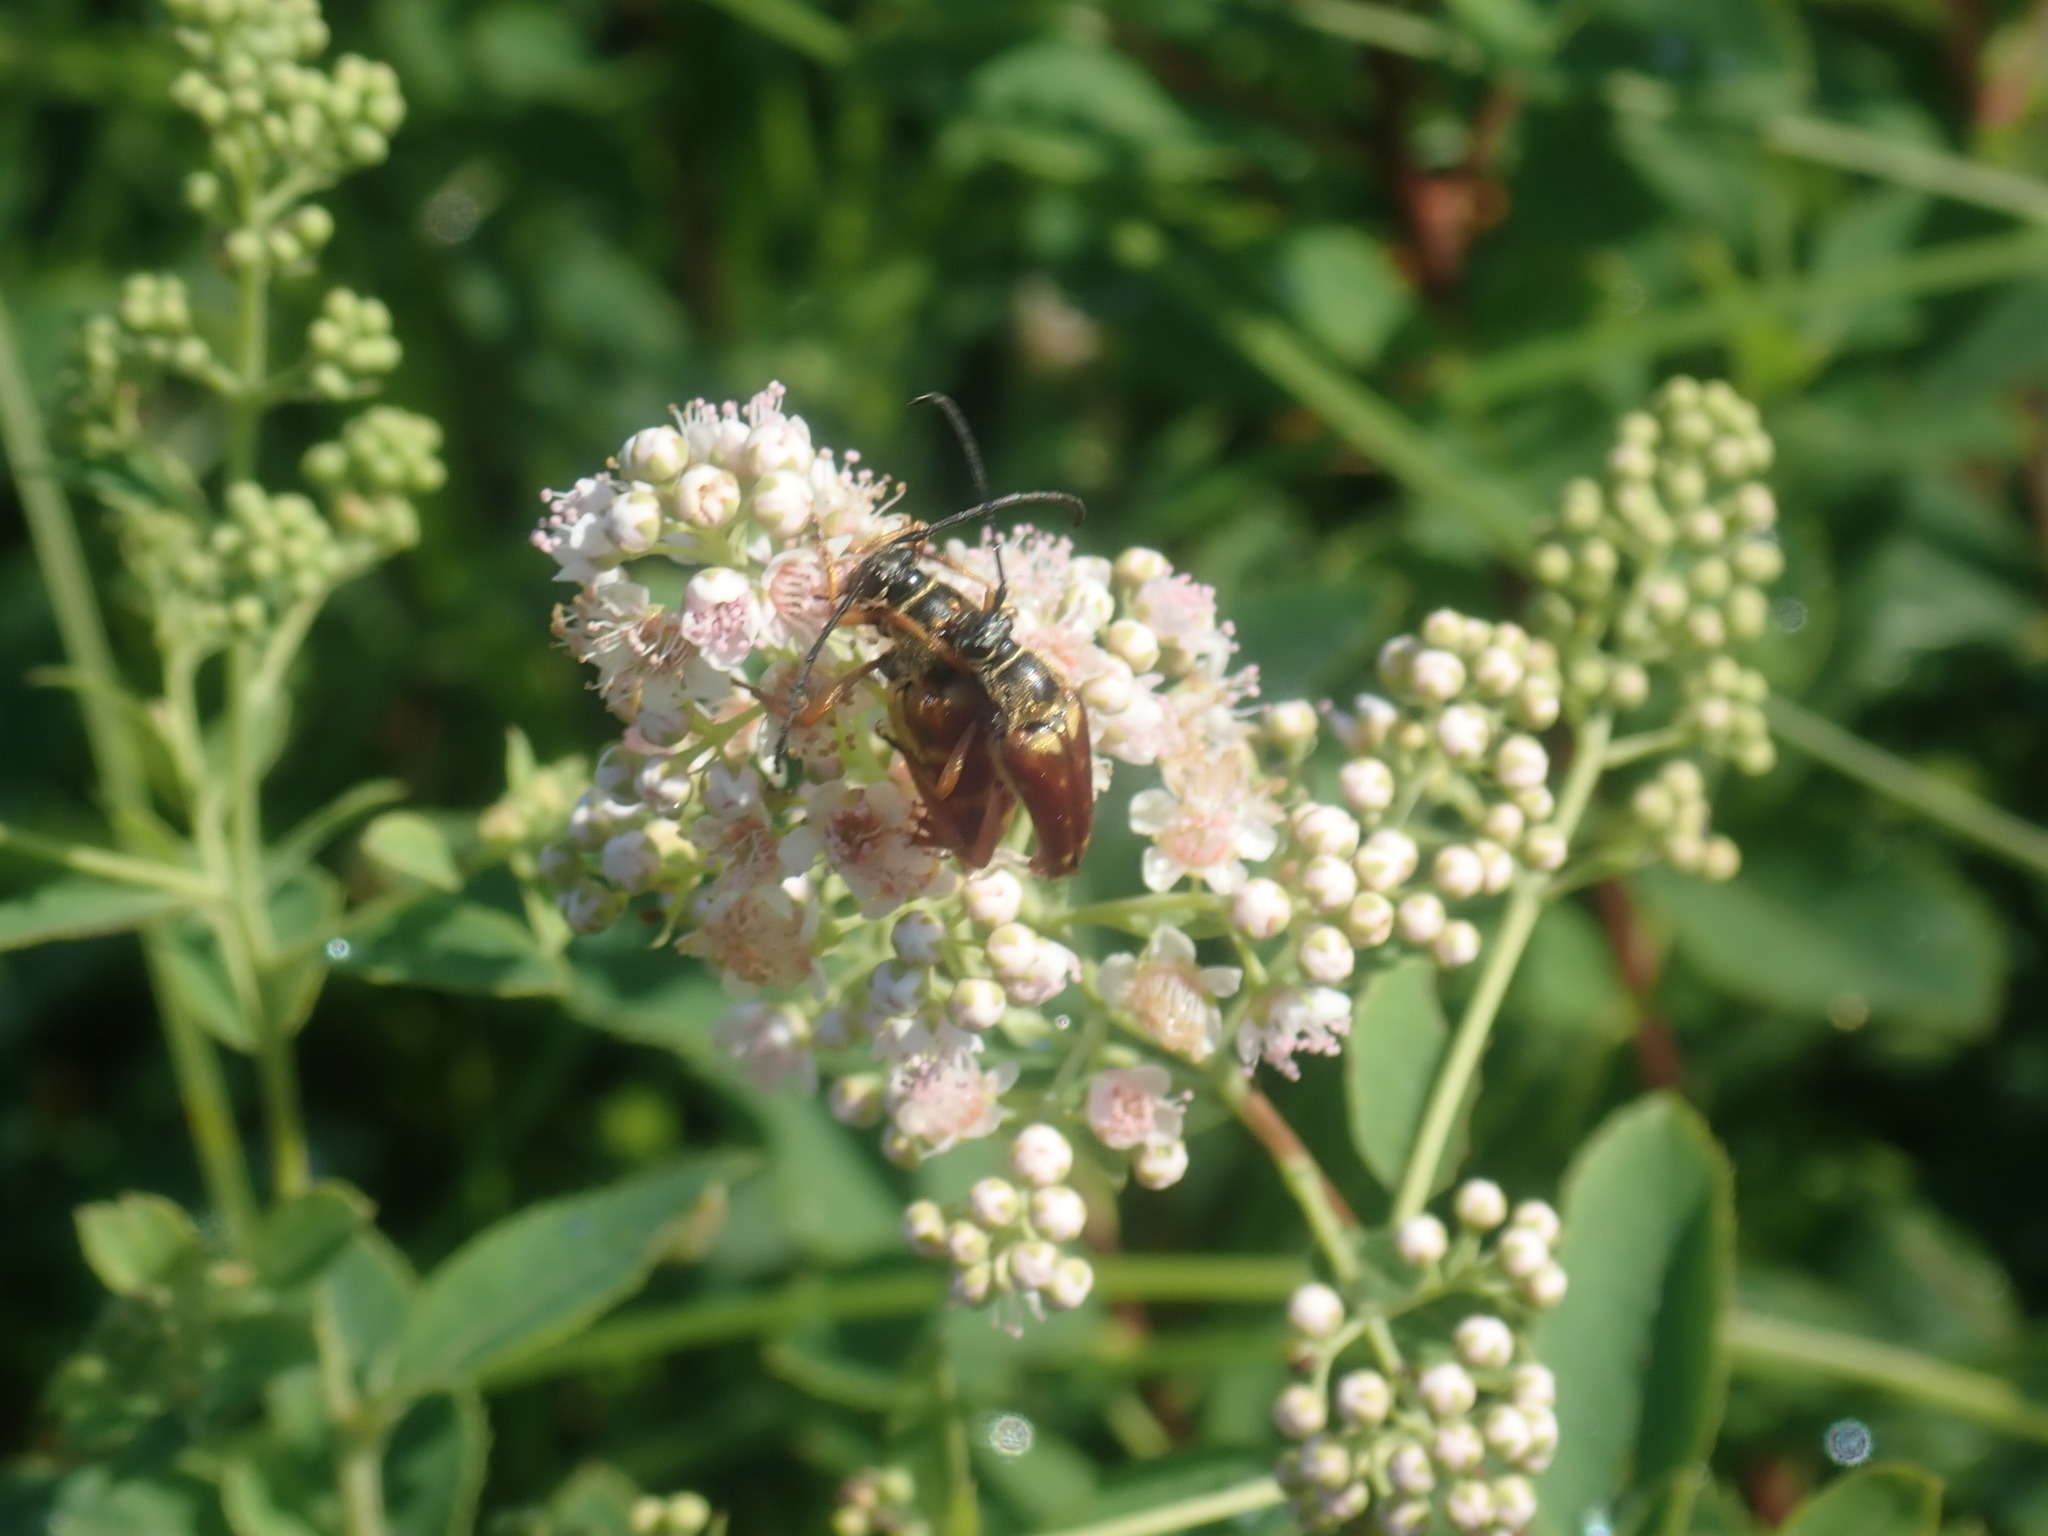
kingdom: Animalia
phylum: Arthropoda
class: Insecta
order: Coleoptera
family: Cerambycidae
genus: Typocerus
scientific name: Typocerus velutinus
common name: Banded longhorn beetle
